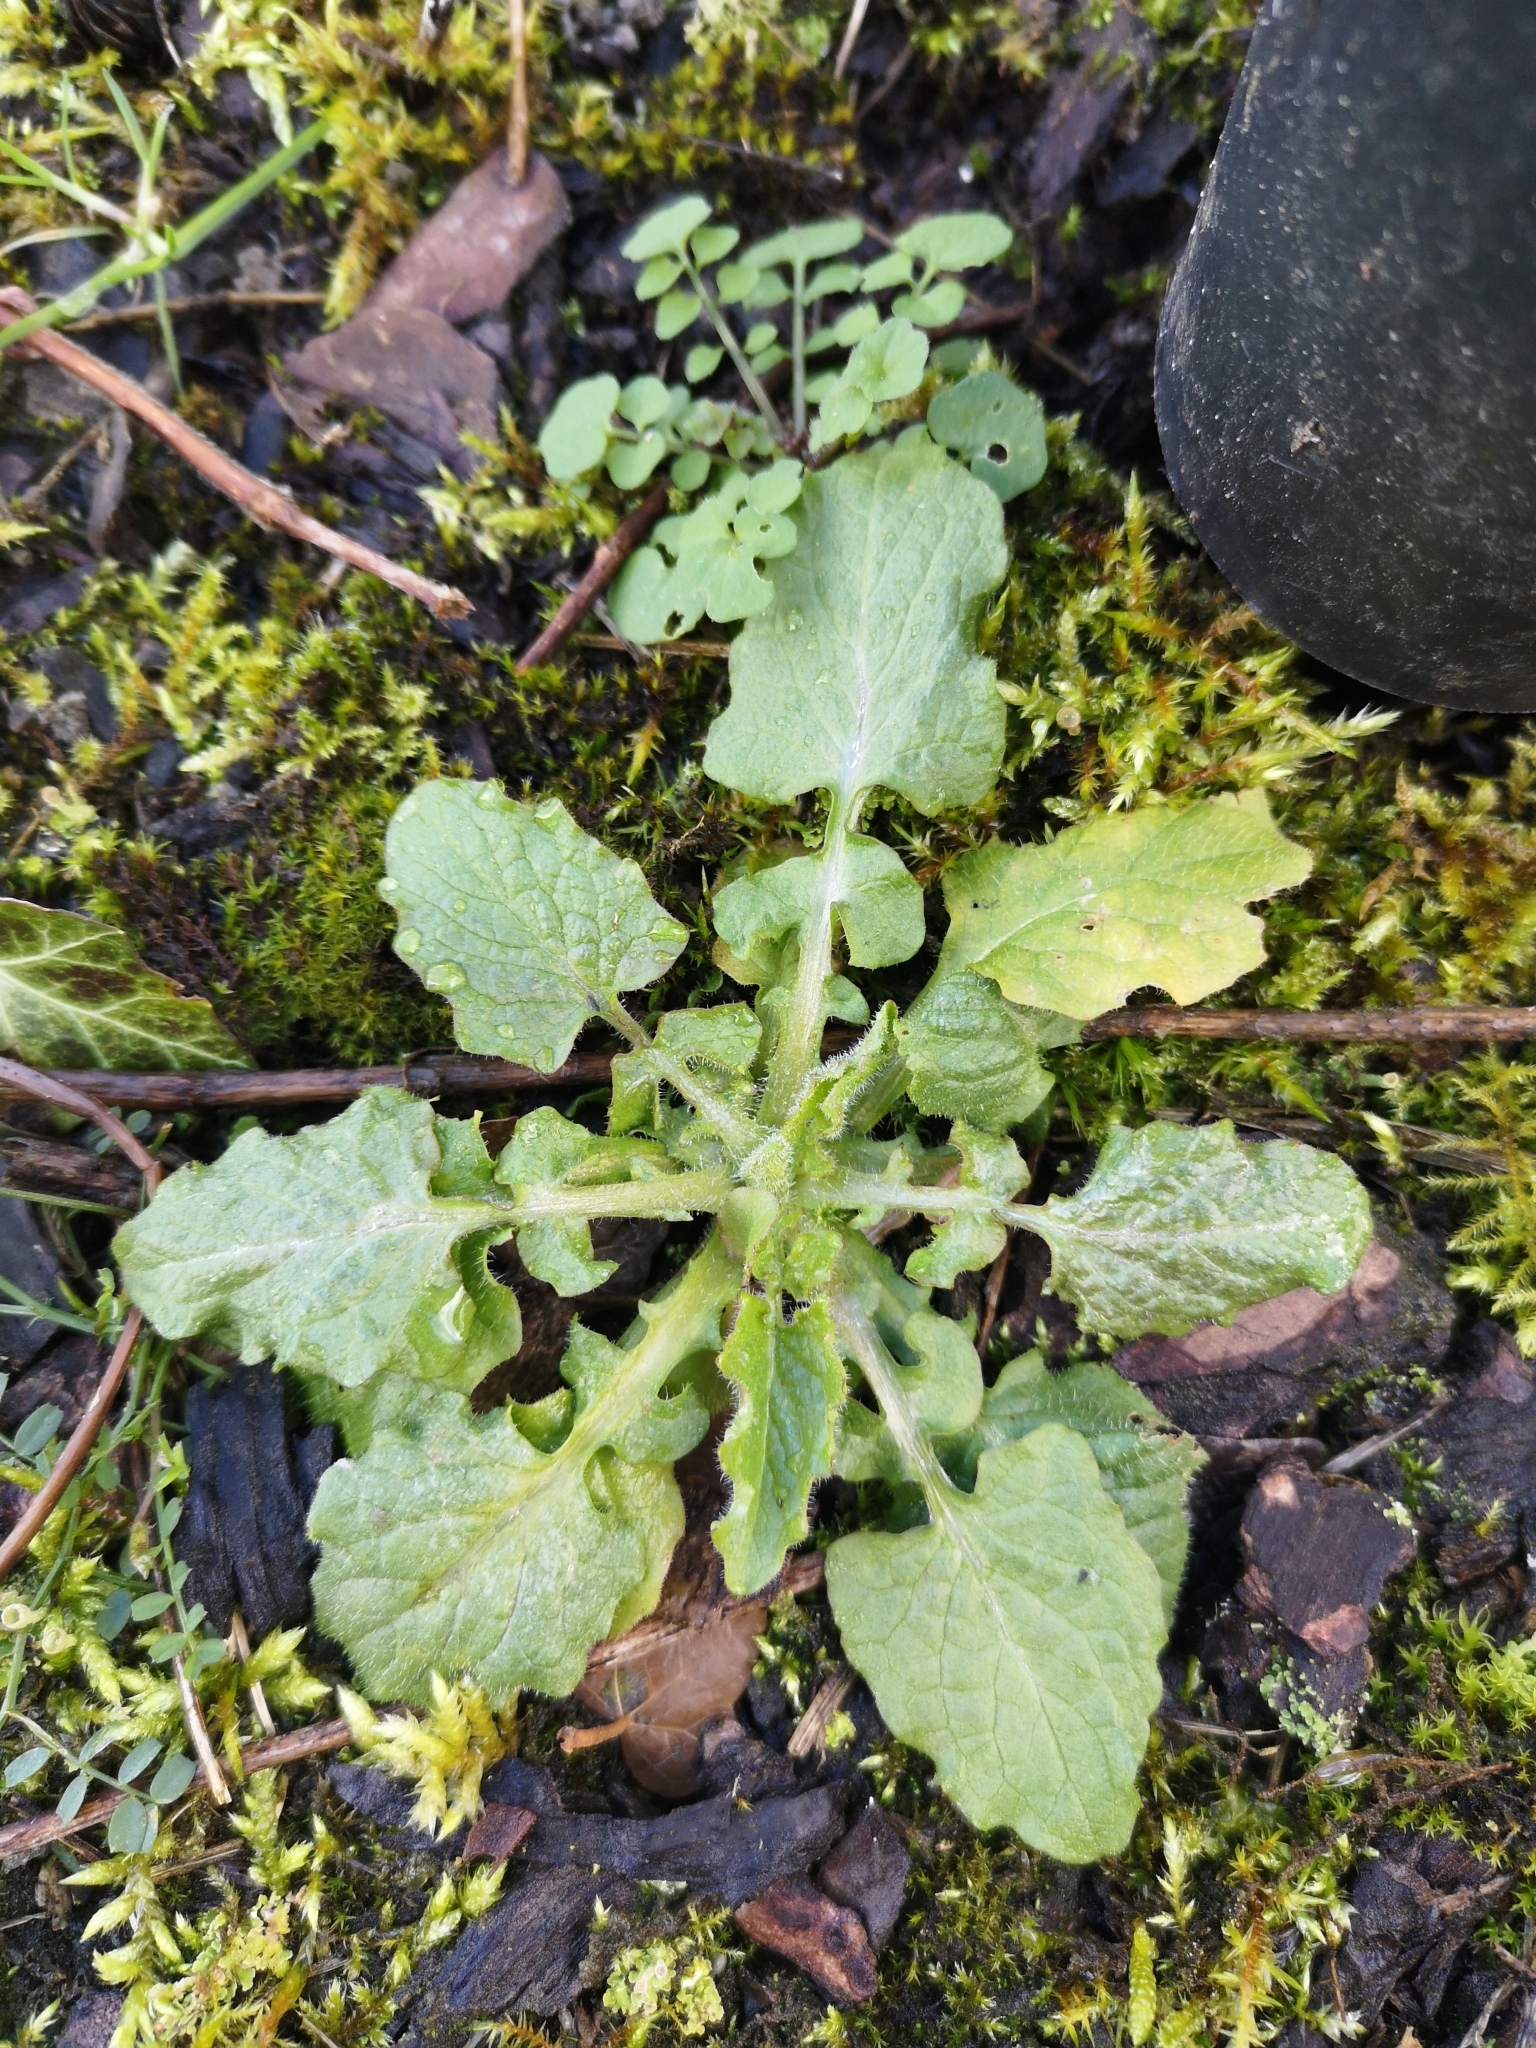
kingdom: Plantae
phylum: Tracheophyta
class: Magnoliopsida
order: Asterales
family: Asteraceae
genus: Lapsana
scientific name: Lapsana communis
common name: Nipplewort
